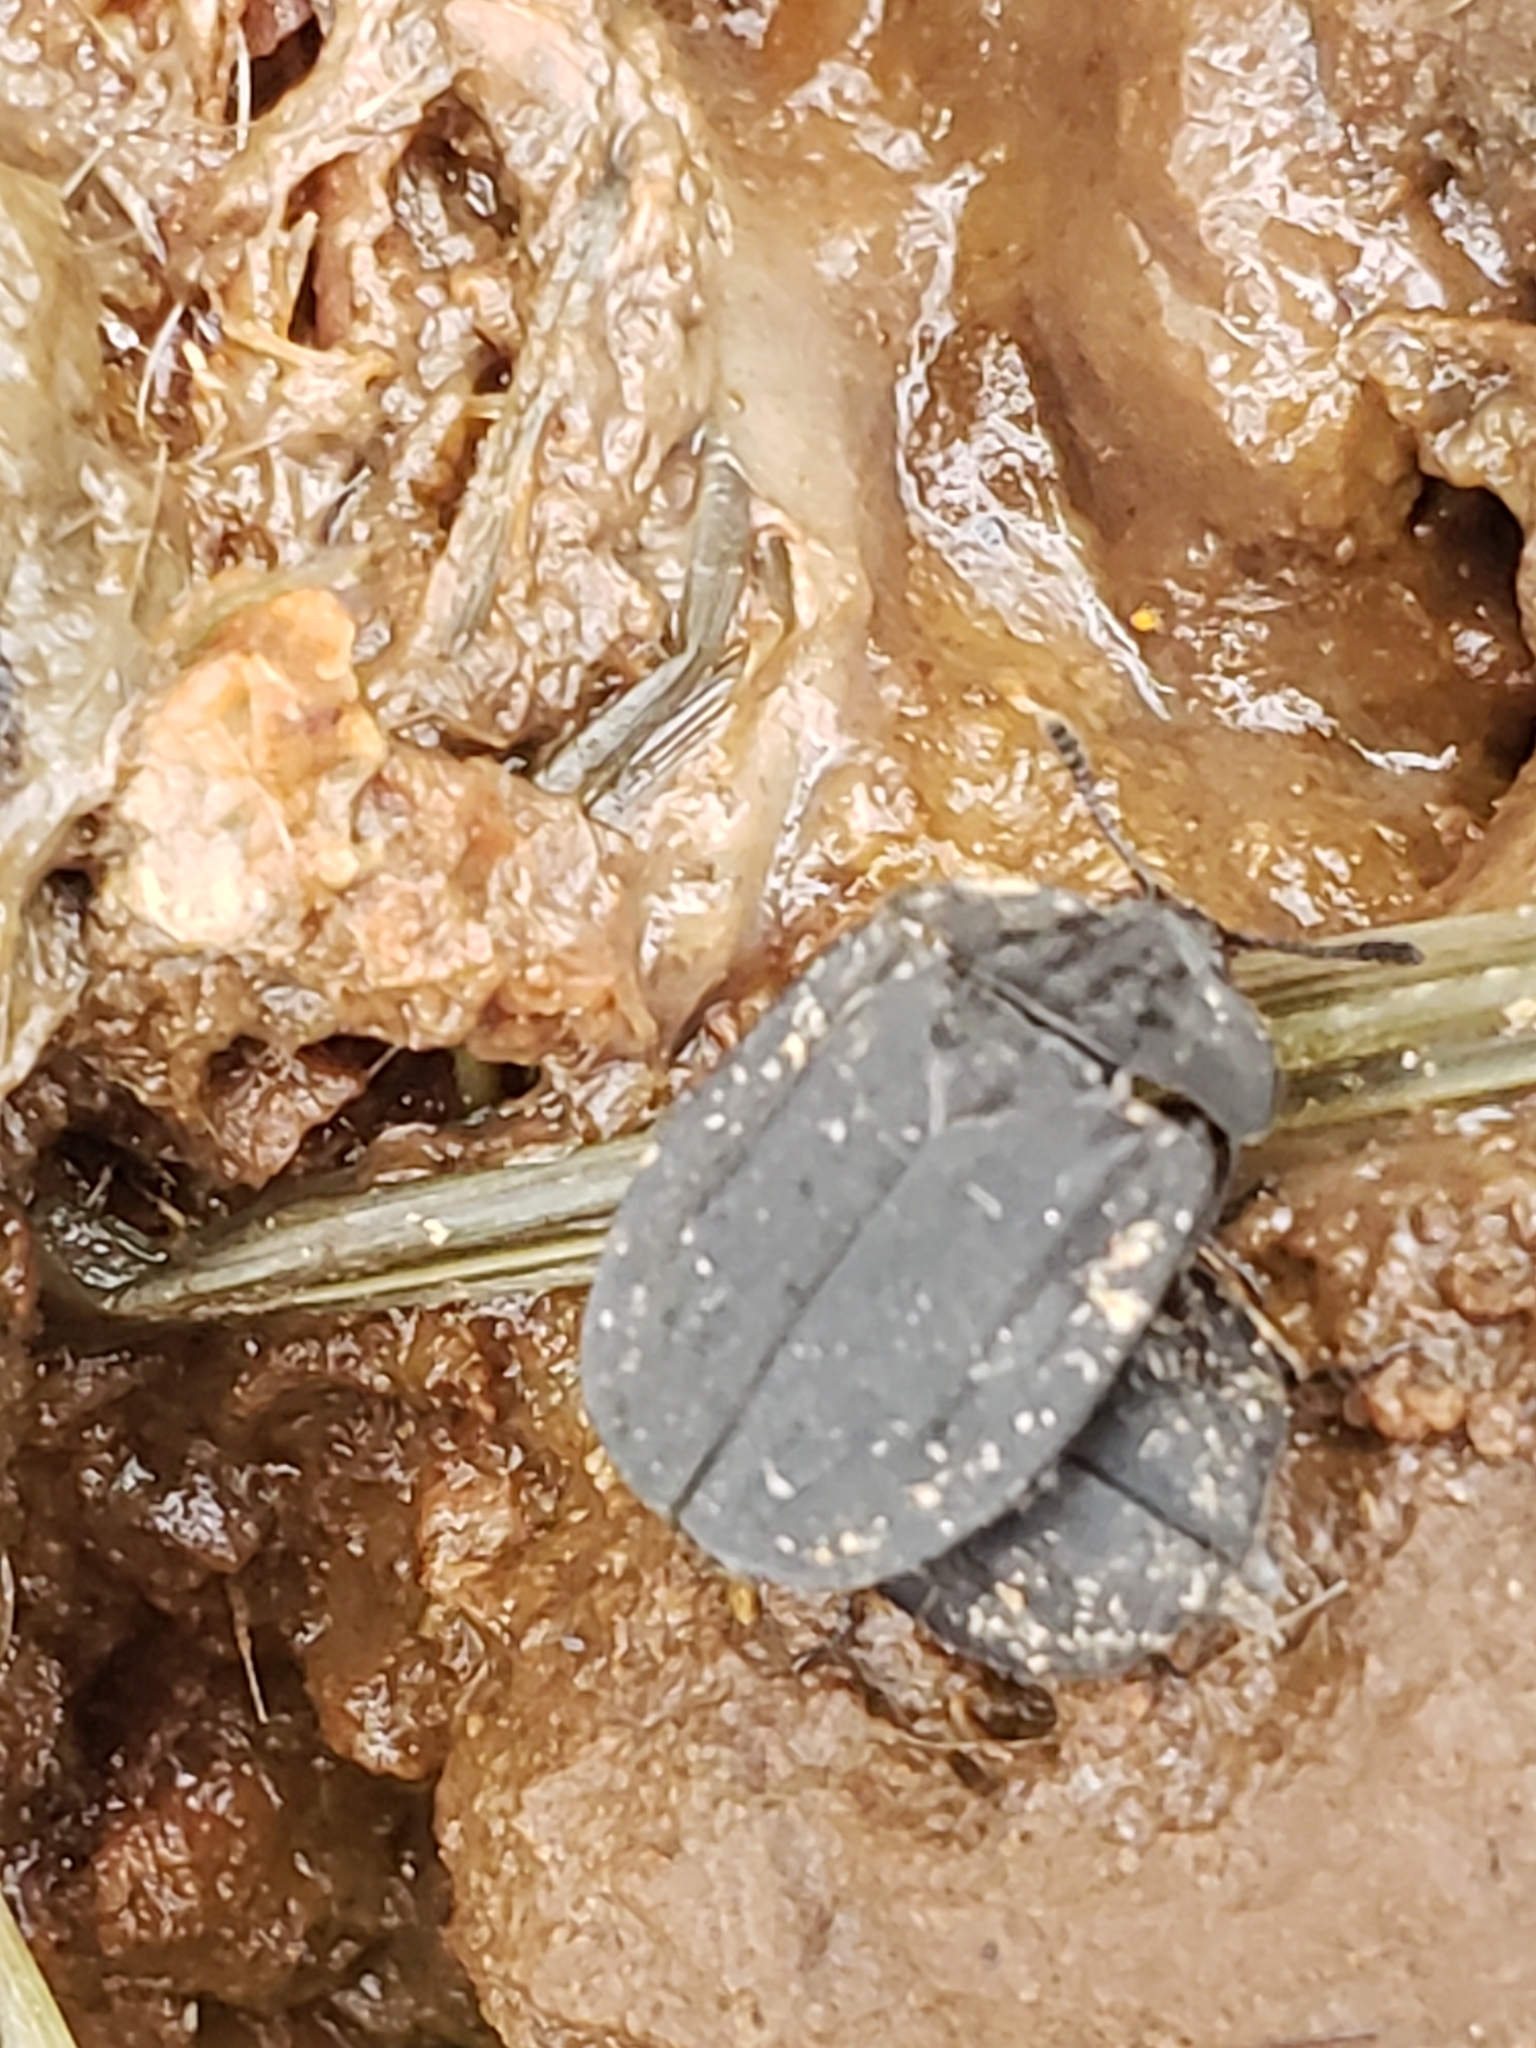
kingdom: Animalia
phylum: Arthropoda
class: Insecta
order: Coleoptera
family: Staphylinidae
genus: Oiceoptoma
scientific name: Oiceoptoma inaequale
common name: Ridged carrion beetle
